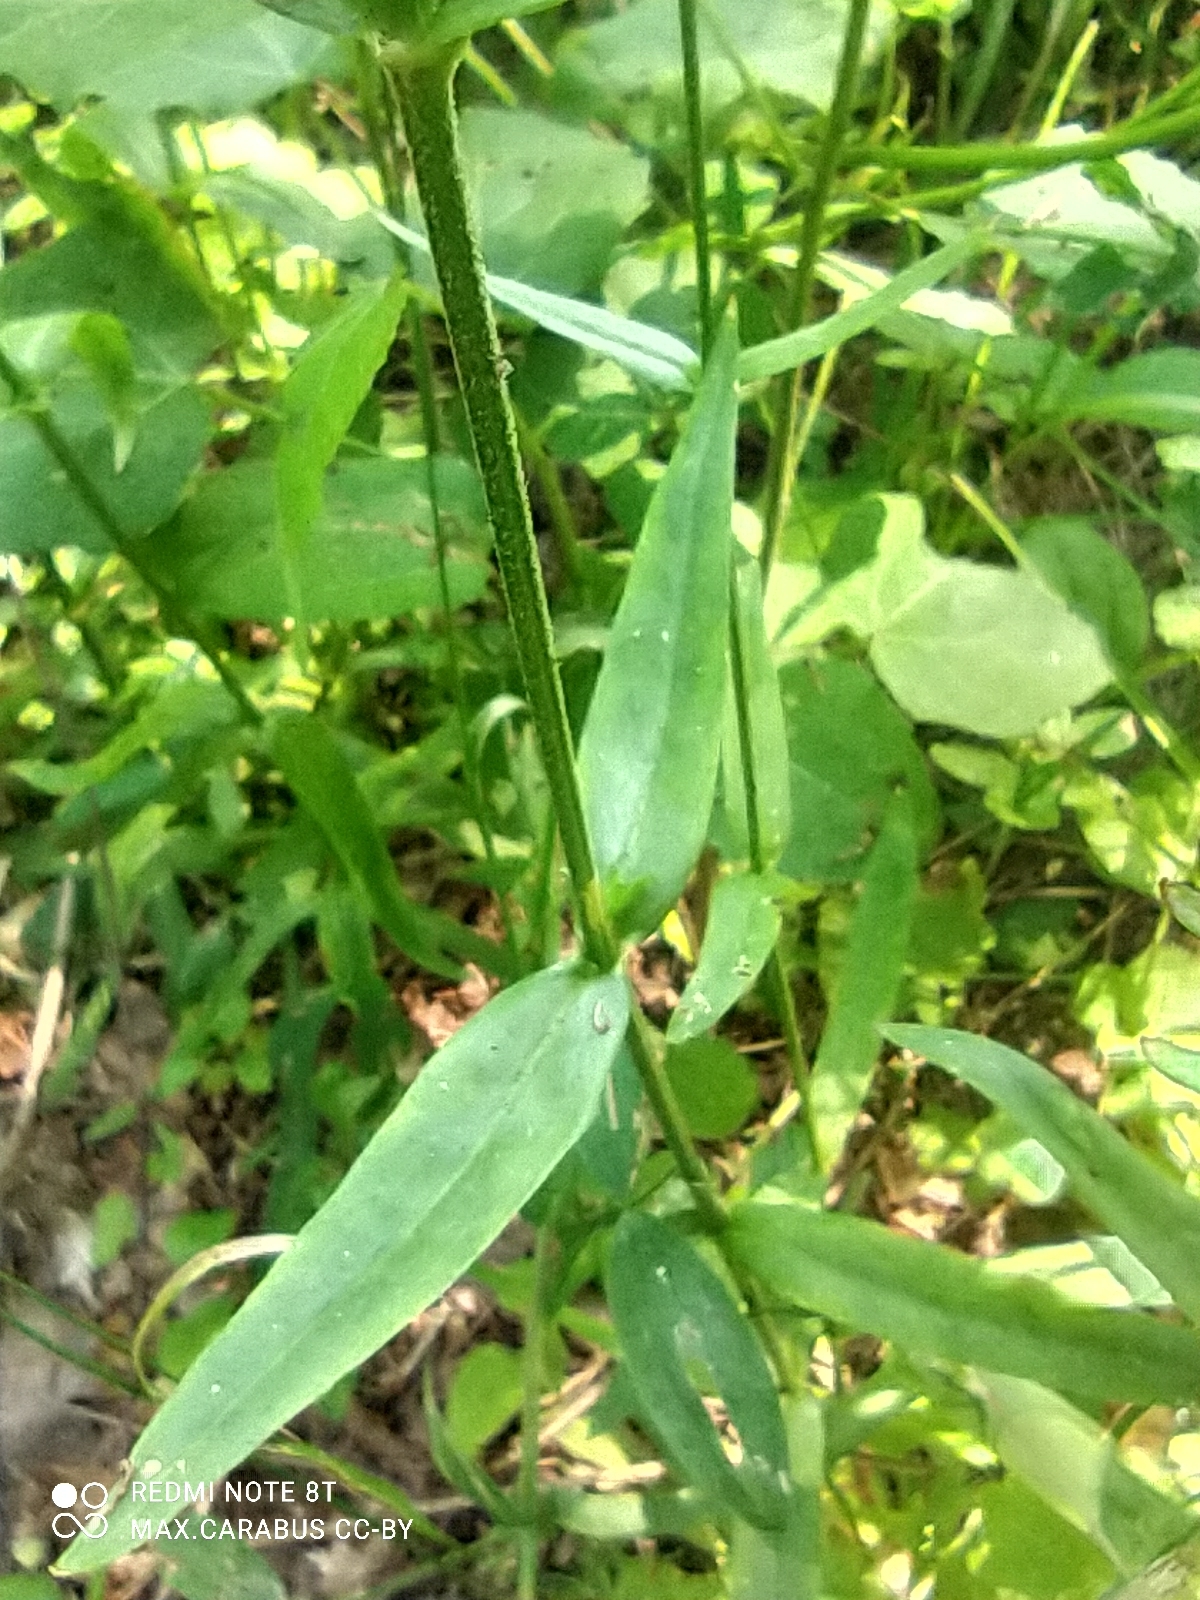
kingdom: Plantae
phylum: Tracheophyta
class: Magnoliopsida
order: Caryophyllales
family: Caryophyllaceae
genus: Silene
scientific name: Silene flos-cuculi
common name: Ragged-robin
